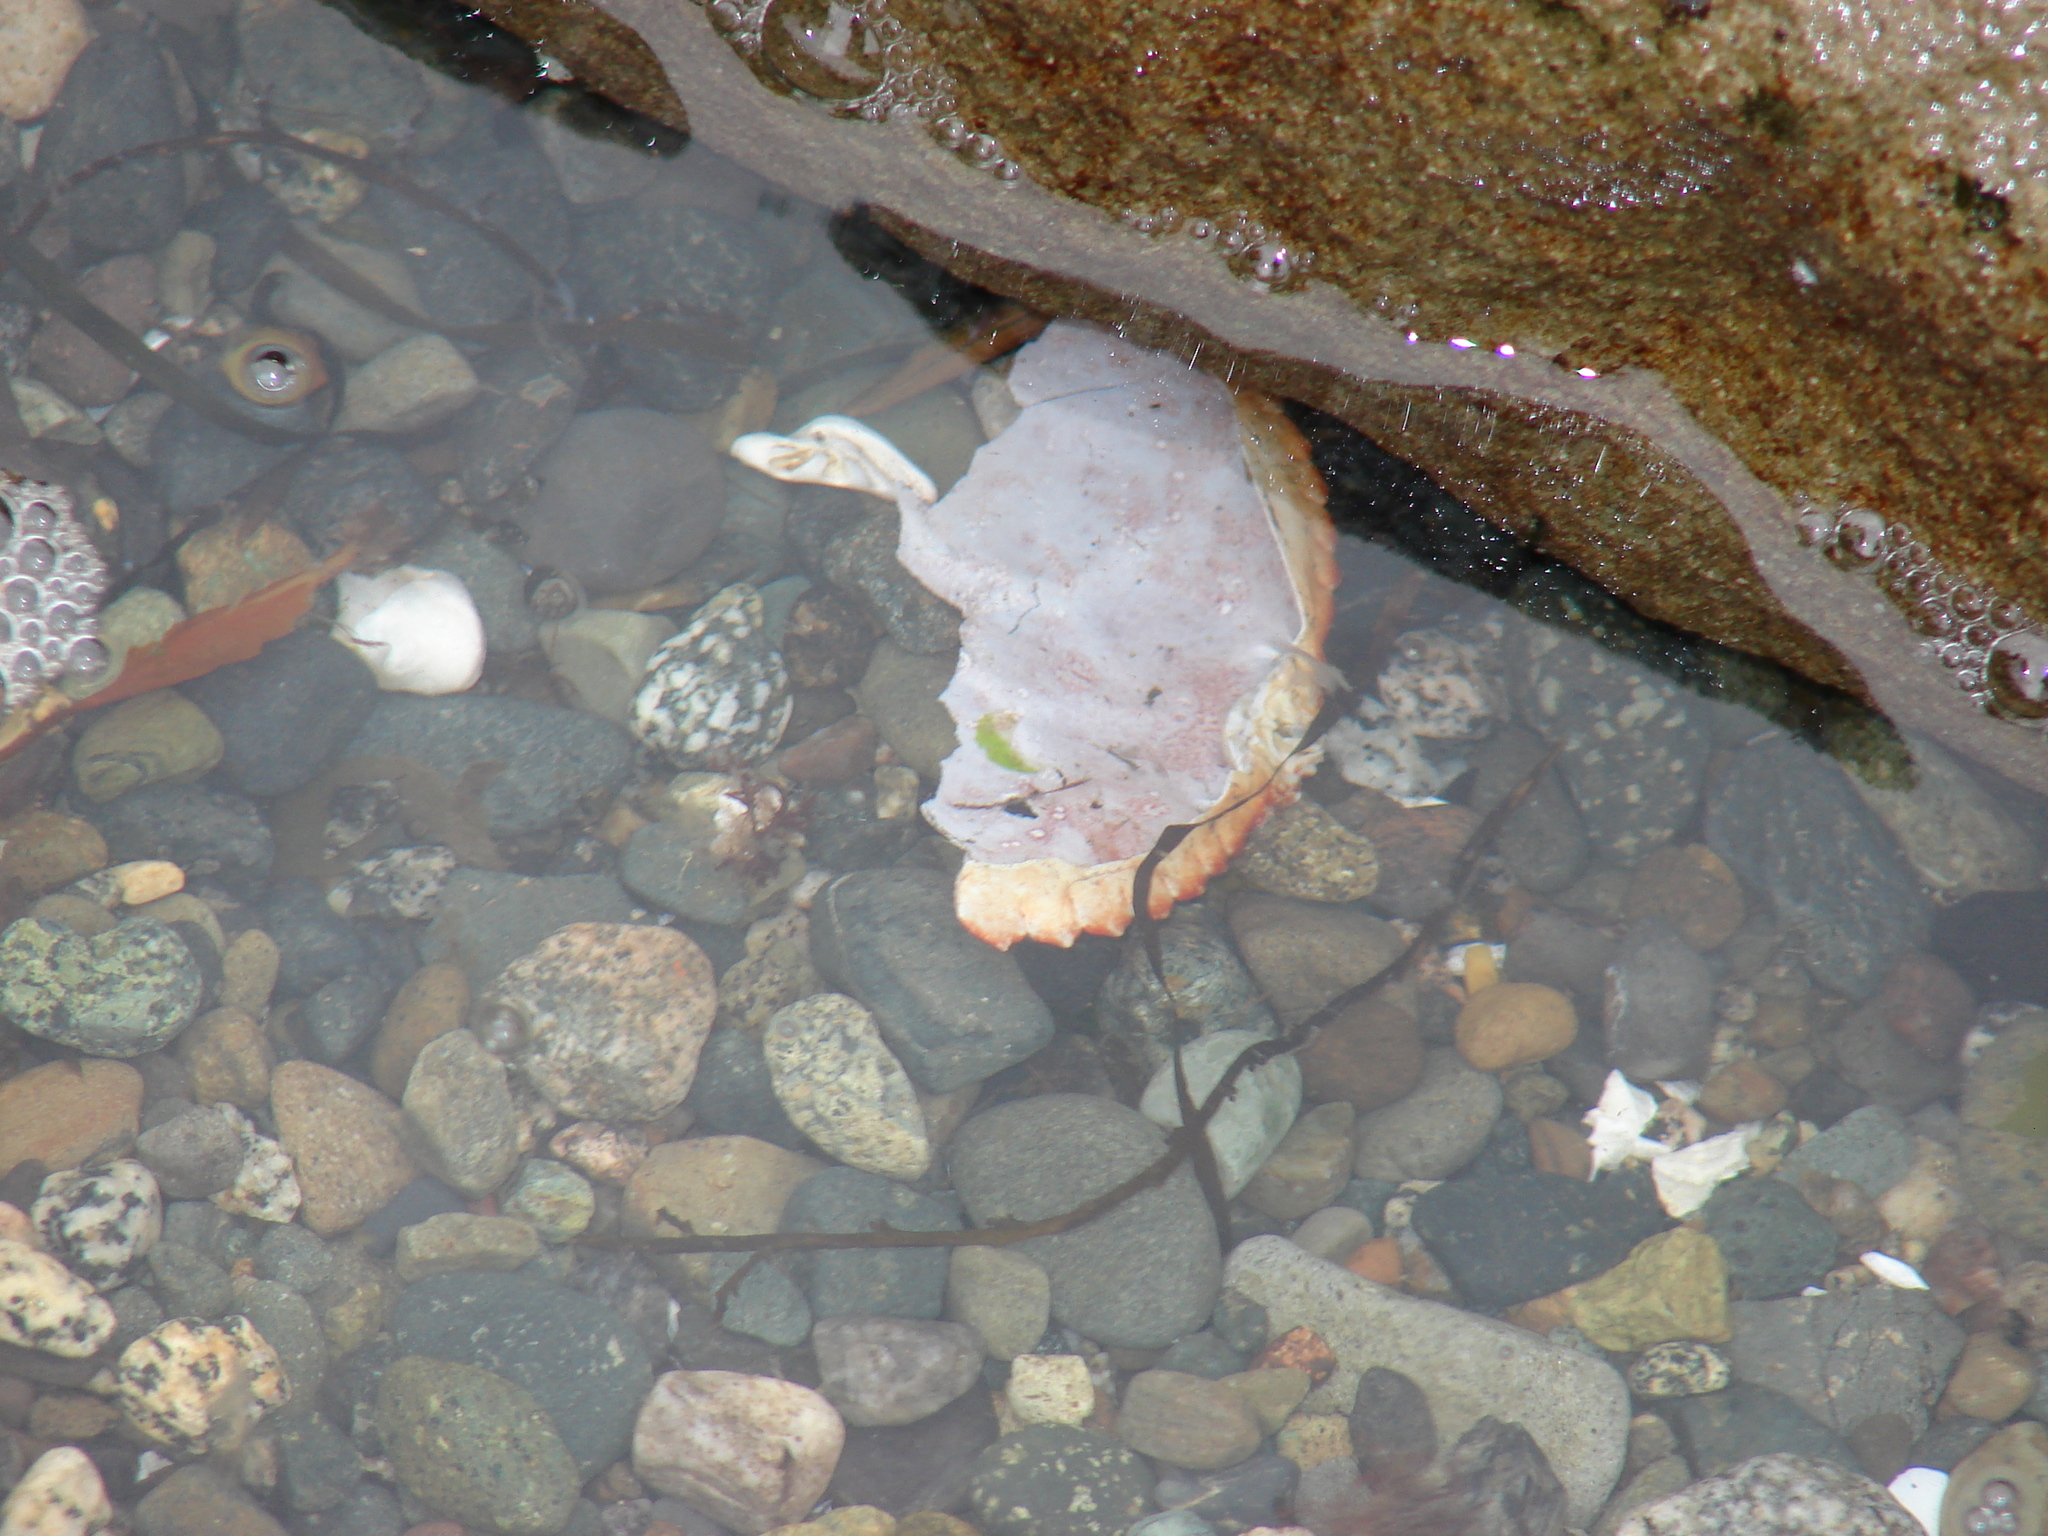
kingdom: Animalia
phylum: Arthropoda
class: Malacostraca
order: Decapoda
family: Cancridae
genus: Cancer
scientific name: Cancer productus
